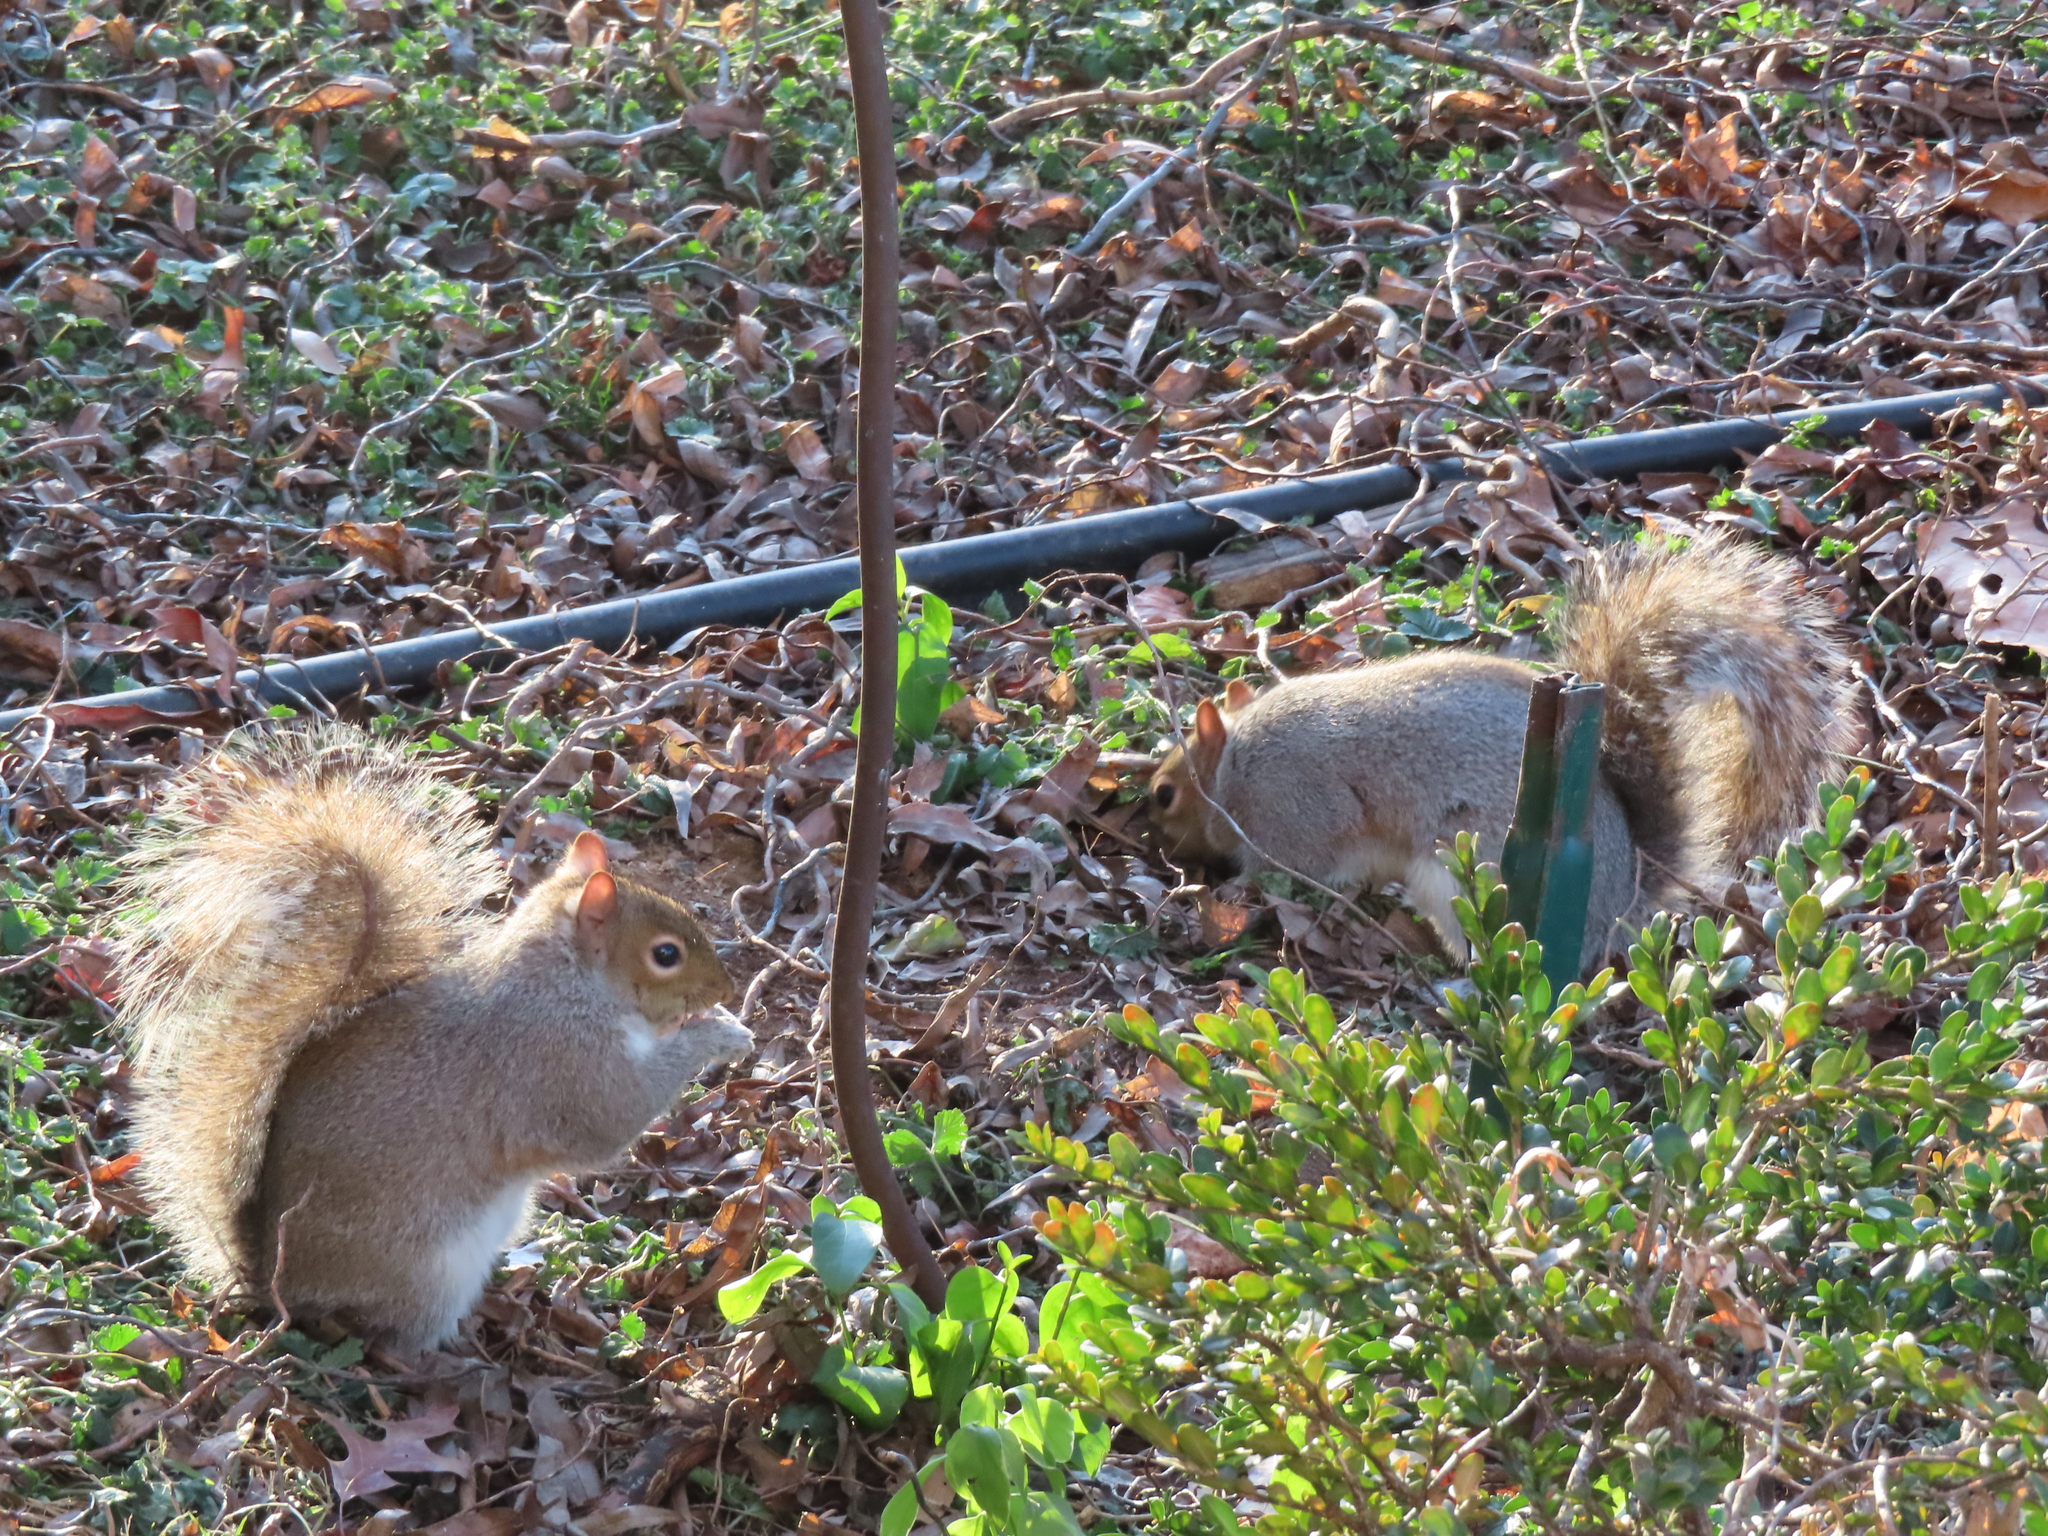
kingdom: Animalia
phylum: Chordata
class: Mammalia
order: Rodentia
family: Sciuridae
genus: Sciurus
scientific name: Sciurus carolinensis
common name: Eastern gray squirrel
